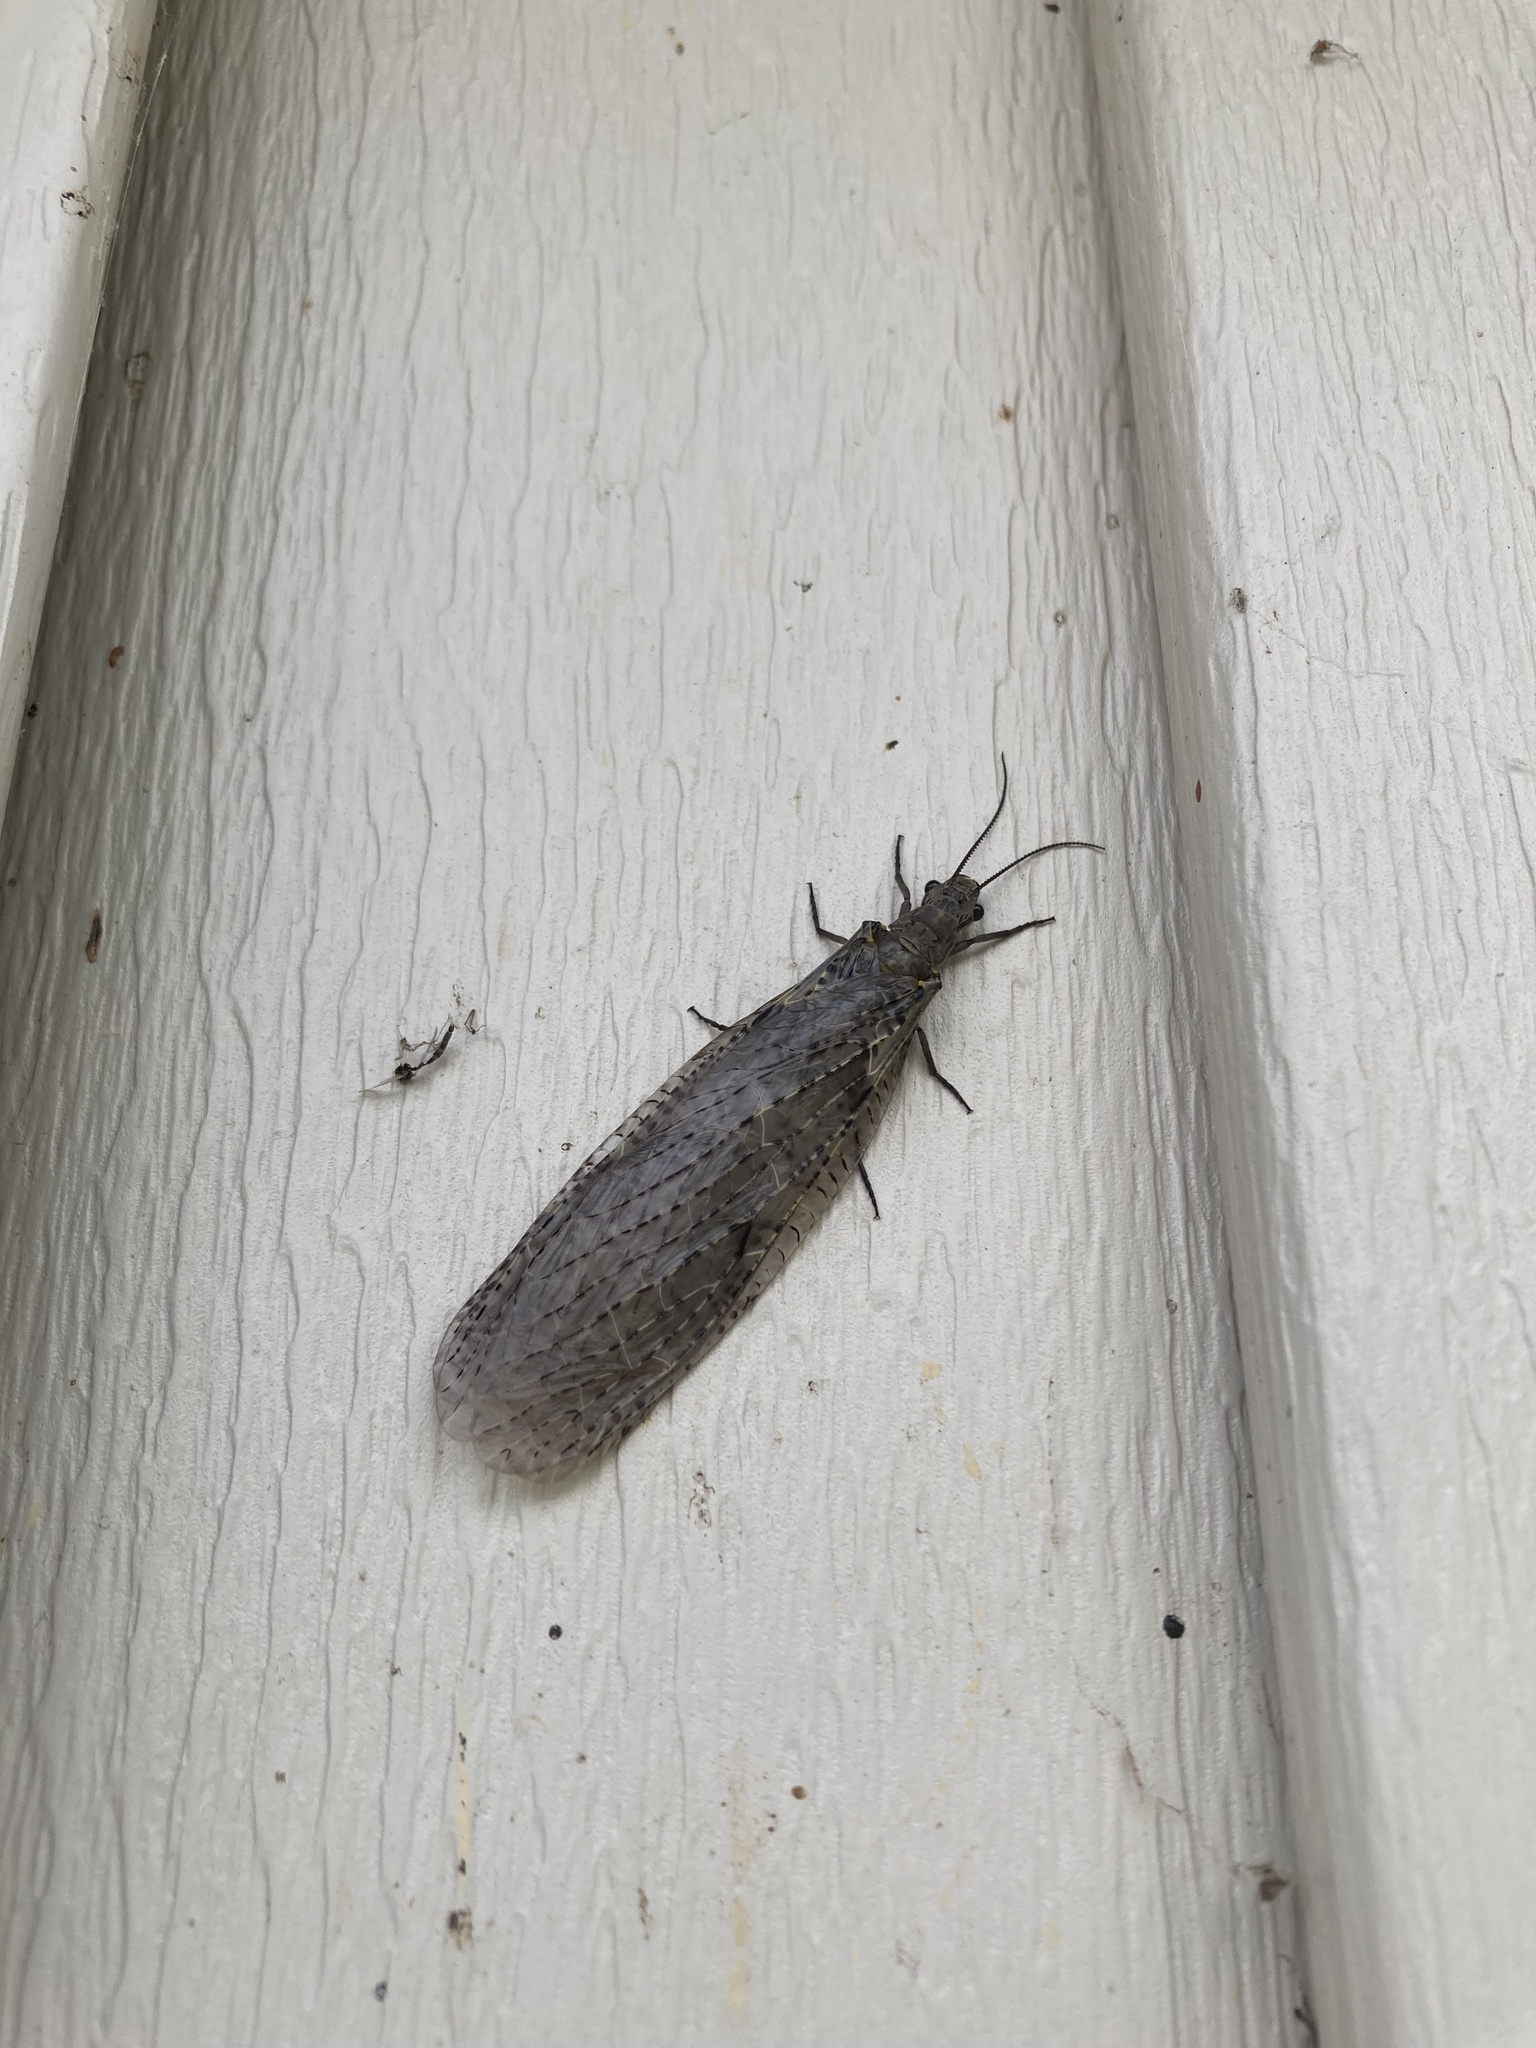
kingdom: Animalia
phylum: Arthropoda
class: Insecta
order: Megaloptera
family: Corydalidae
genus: Chauliodes
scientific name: Chauliodes rastricornis
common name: Spring fishfly
